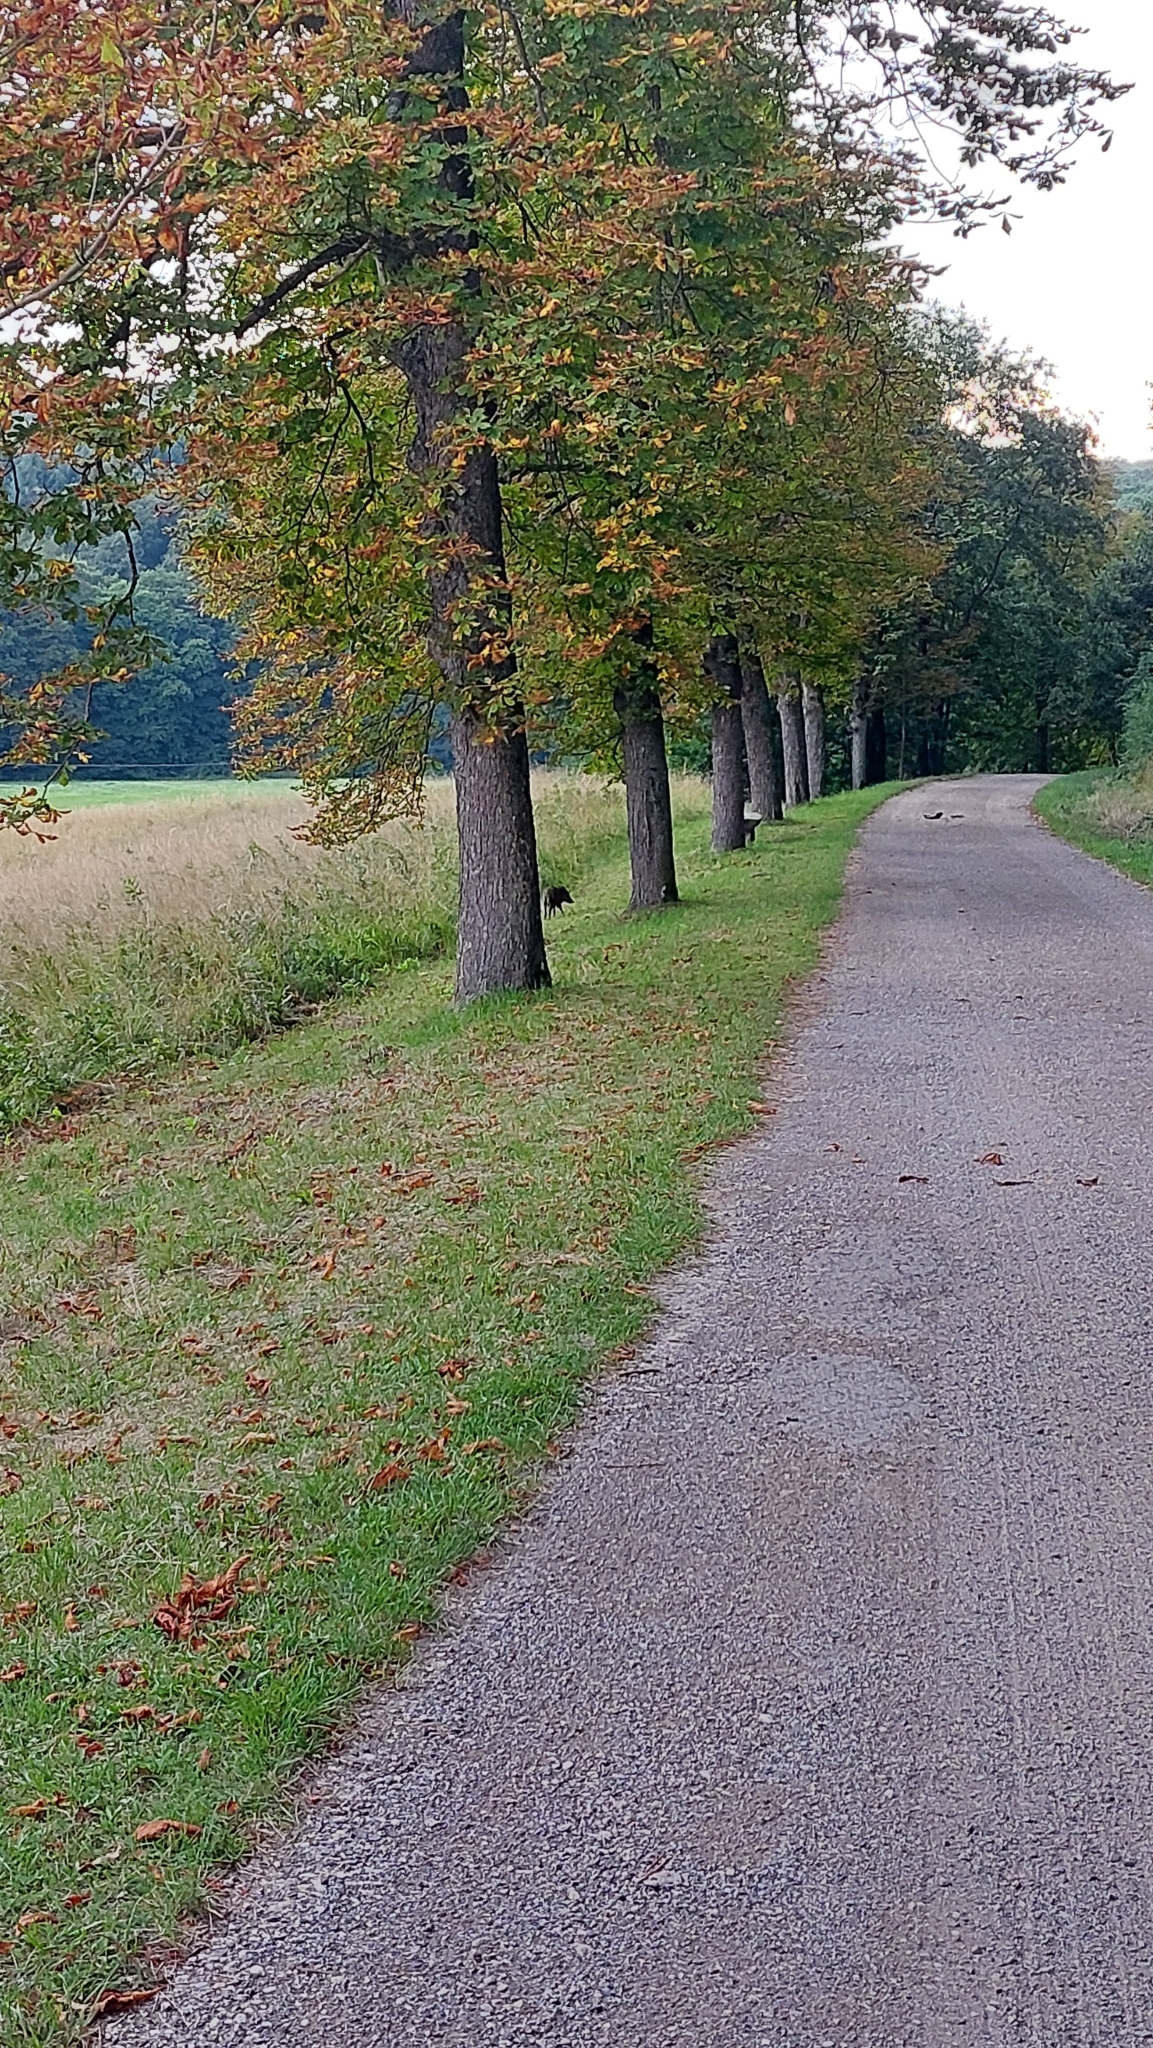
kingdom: Animalia
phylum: Chordata
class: Mammalia
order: Artiodactyla
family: Suidae
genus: Sus
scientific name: Sus scrofa
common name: Wild boar
